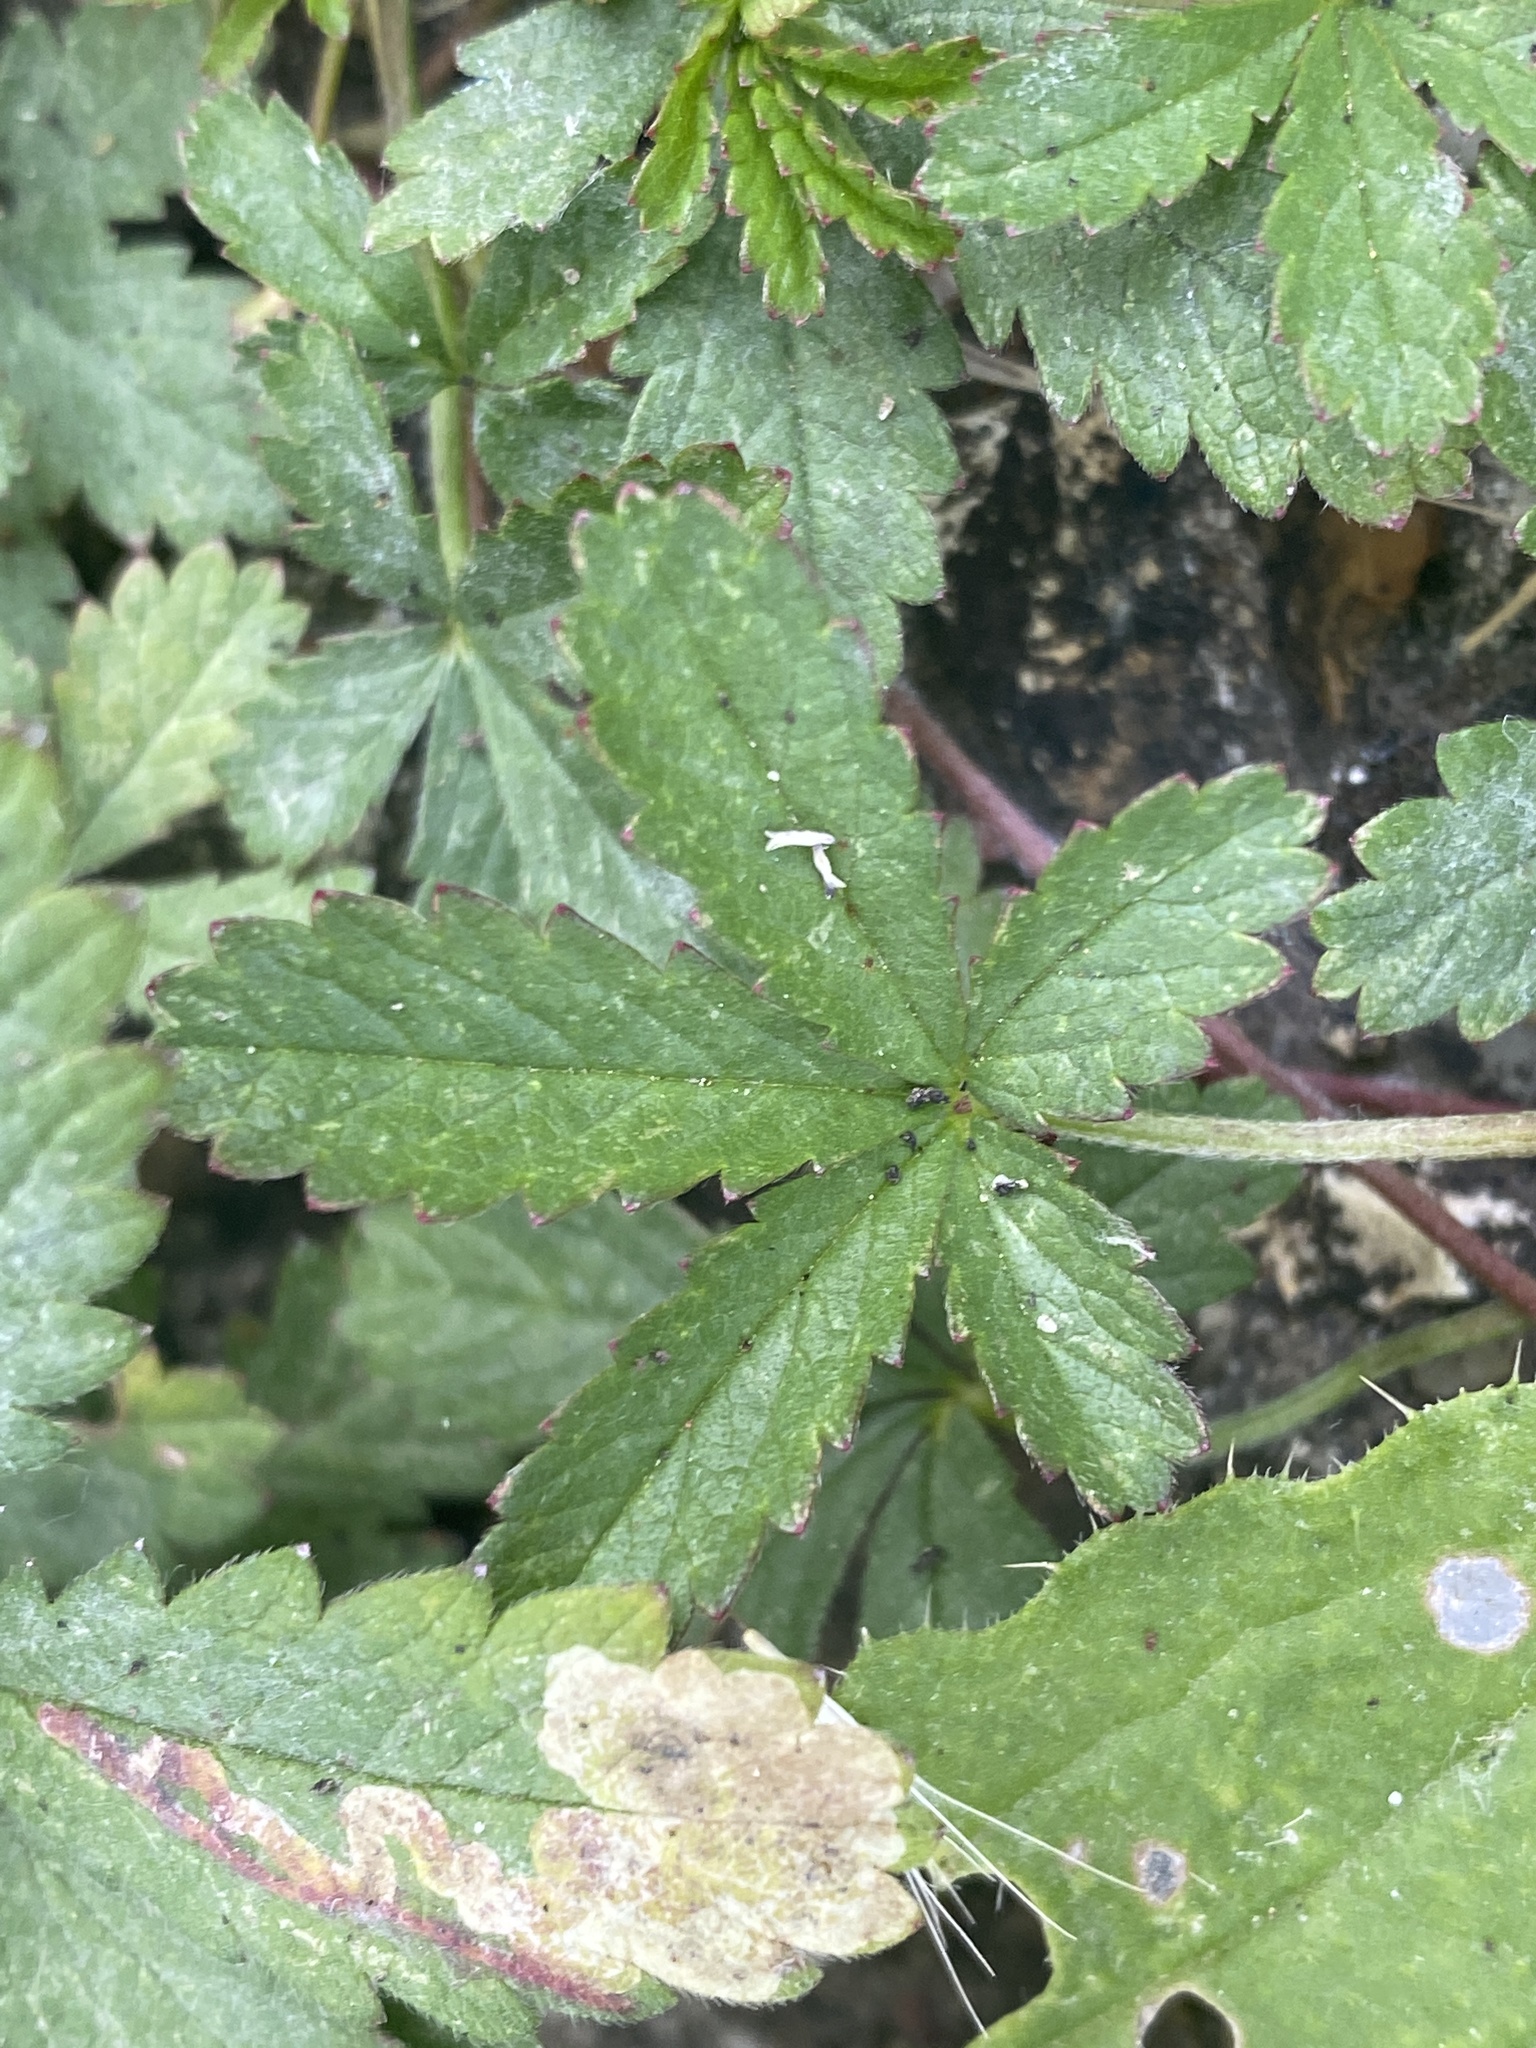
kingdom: Plantae
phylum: Tracheophyta
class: Magnoliopsida
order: Rosales
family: Rosaceae
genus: Potentilla
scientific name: Potentilla reptans
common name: Creeping cinquefoil
